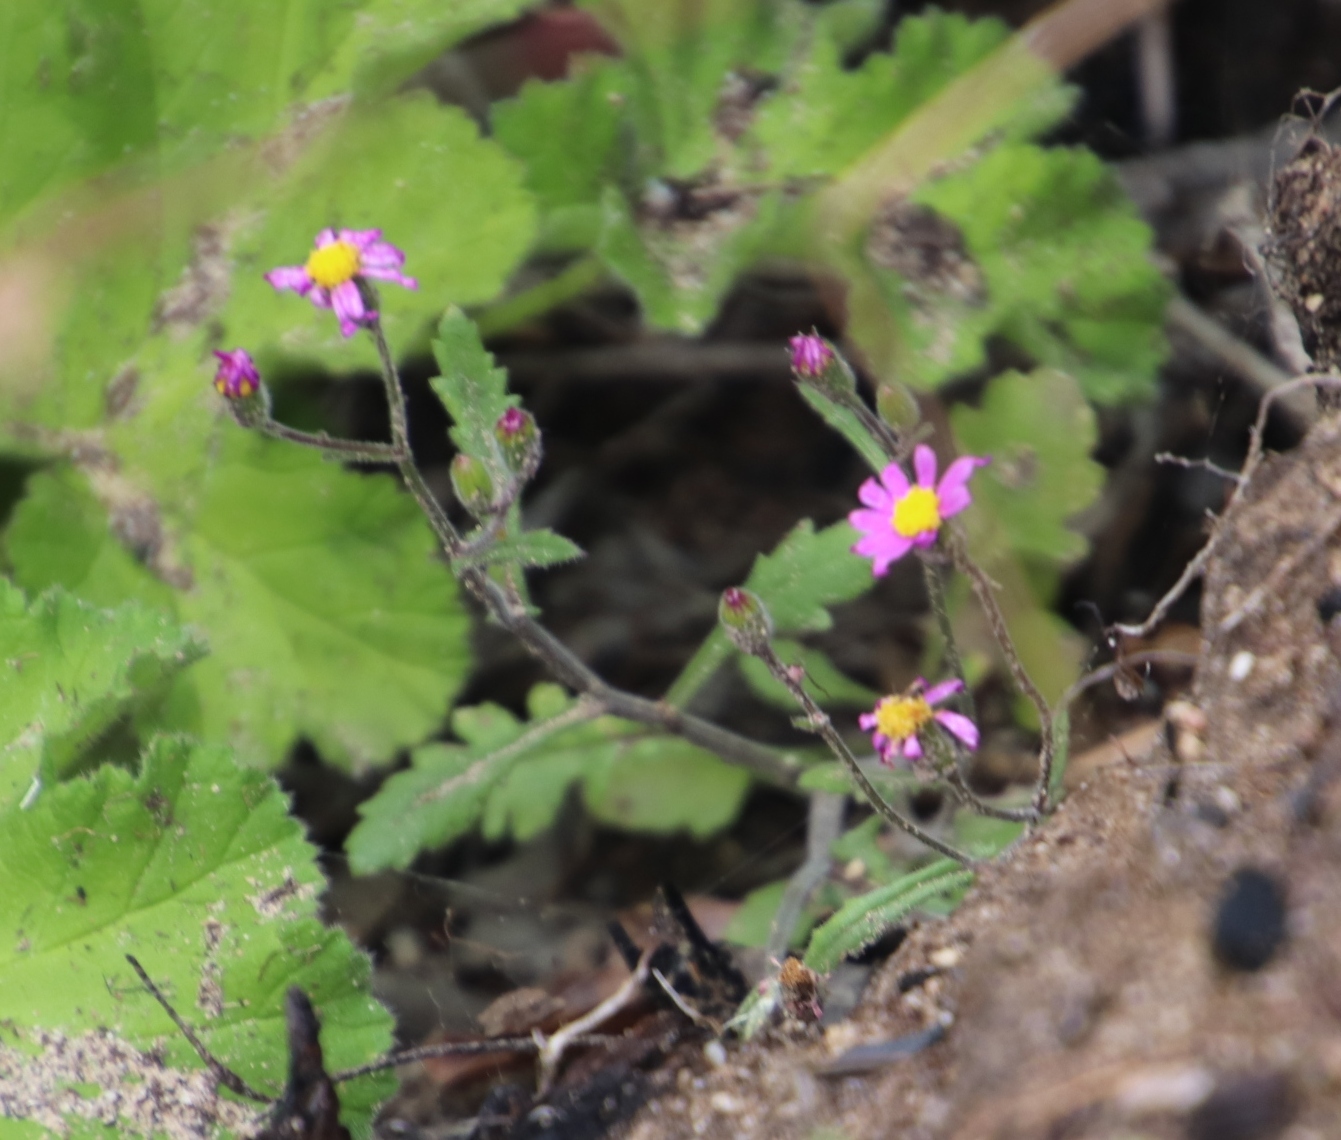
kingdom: Plantae
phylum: Tracheophyta
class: Magnoliopsida
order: Asterales
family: Asteraceae
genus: Senecio
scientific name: Senecio arenarius
